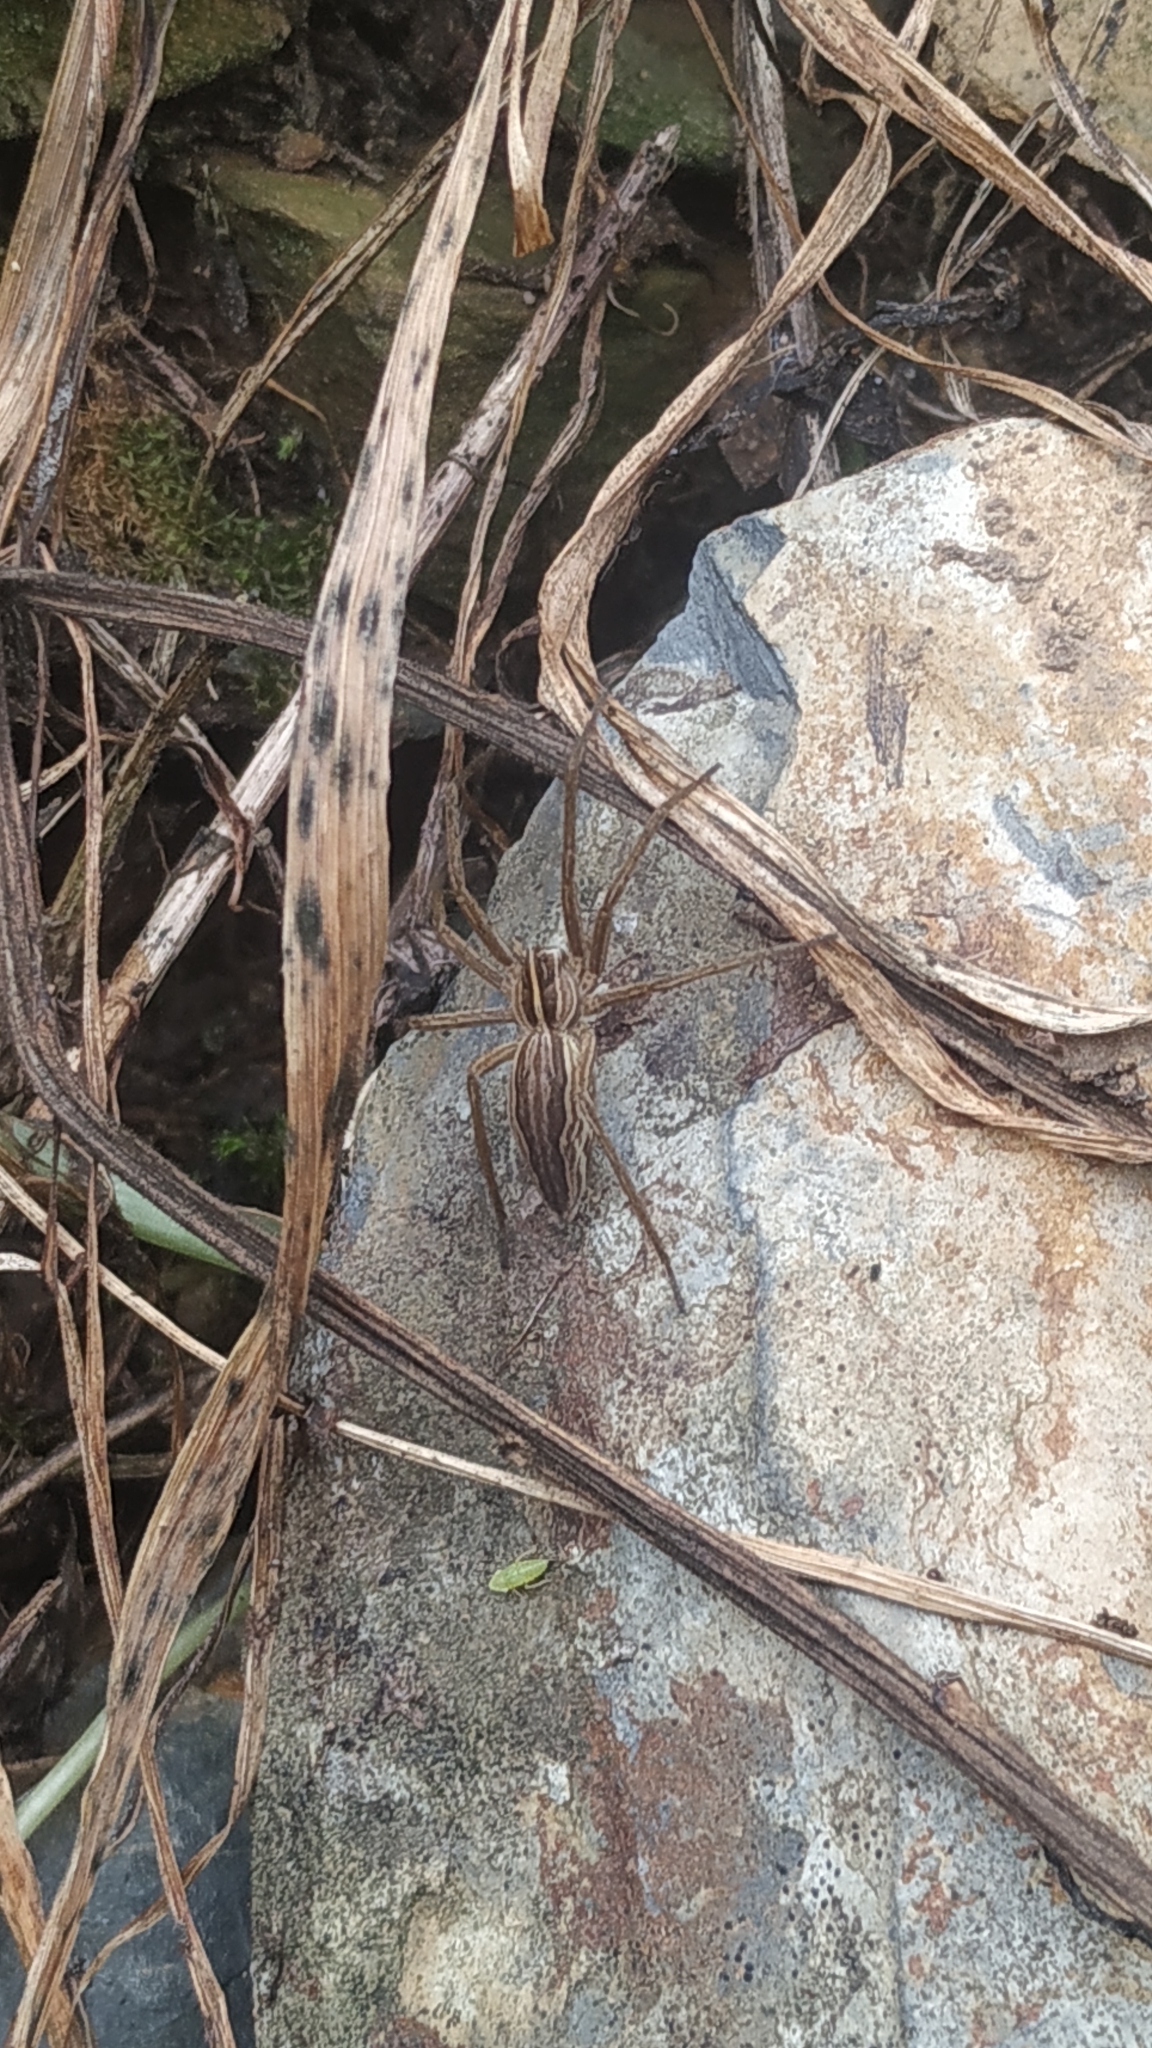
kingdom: Animalia
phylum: Arthropoda
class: Arachnida
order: Araneae
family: Pisauridae
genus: Pisaura
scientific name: Pisaura mirabilis
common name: Tent spider
